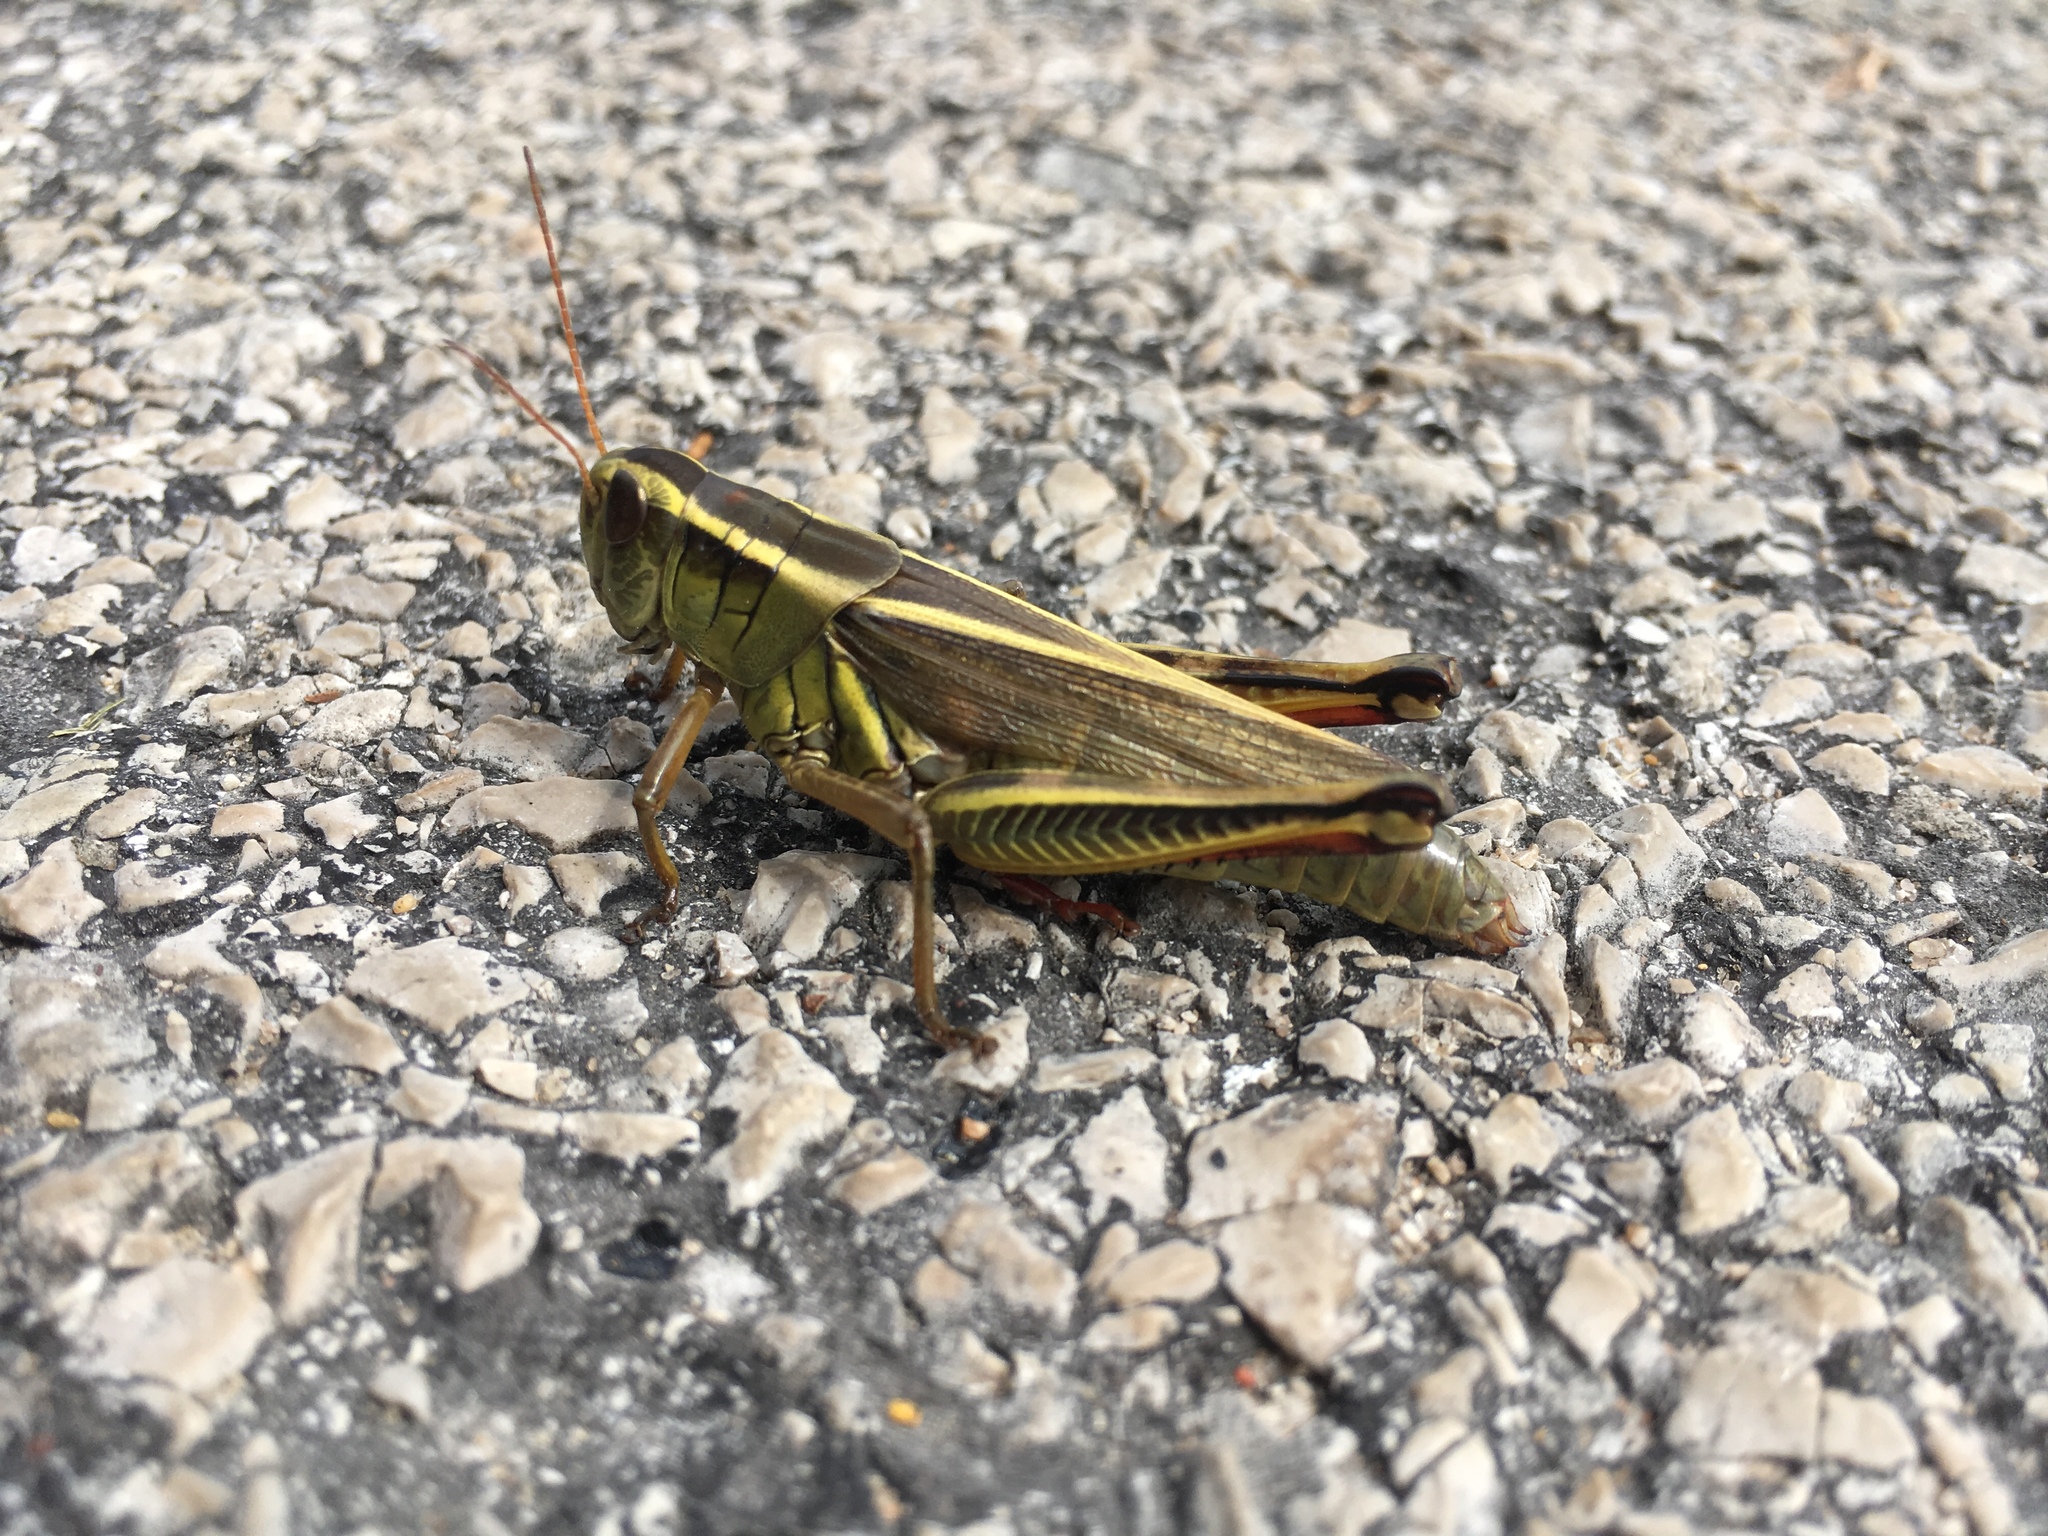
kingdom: Animalia
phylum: Arthropoda
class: Insecta
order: Orthoptera
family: Acrididae
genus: Melanoplus
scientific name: Melanoplus bivittatus
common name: Two-striped grasshopper
